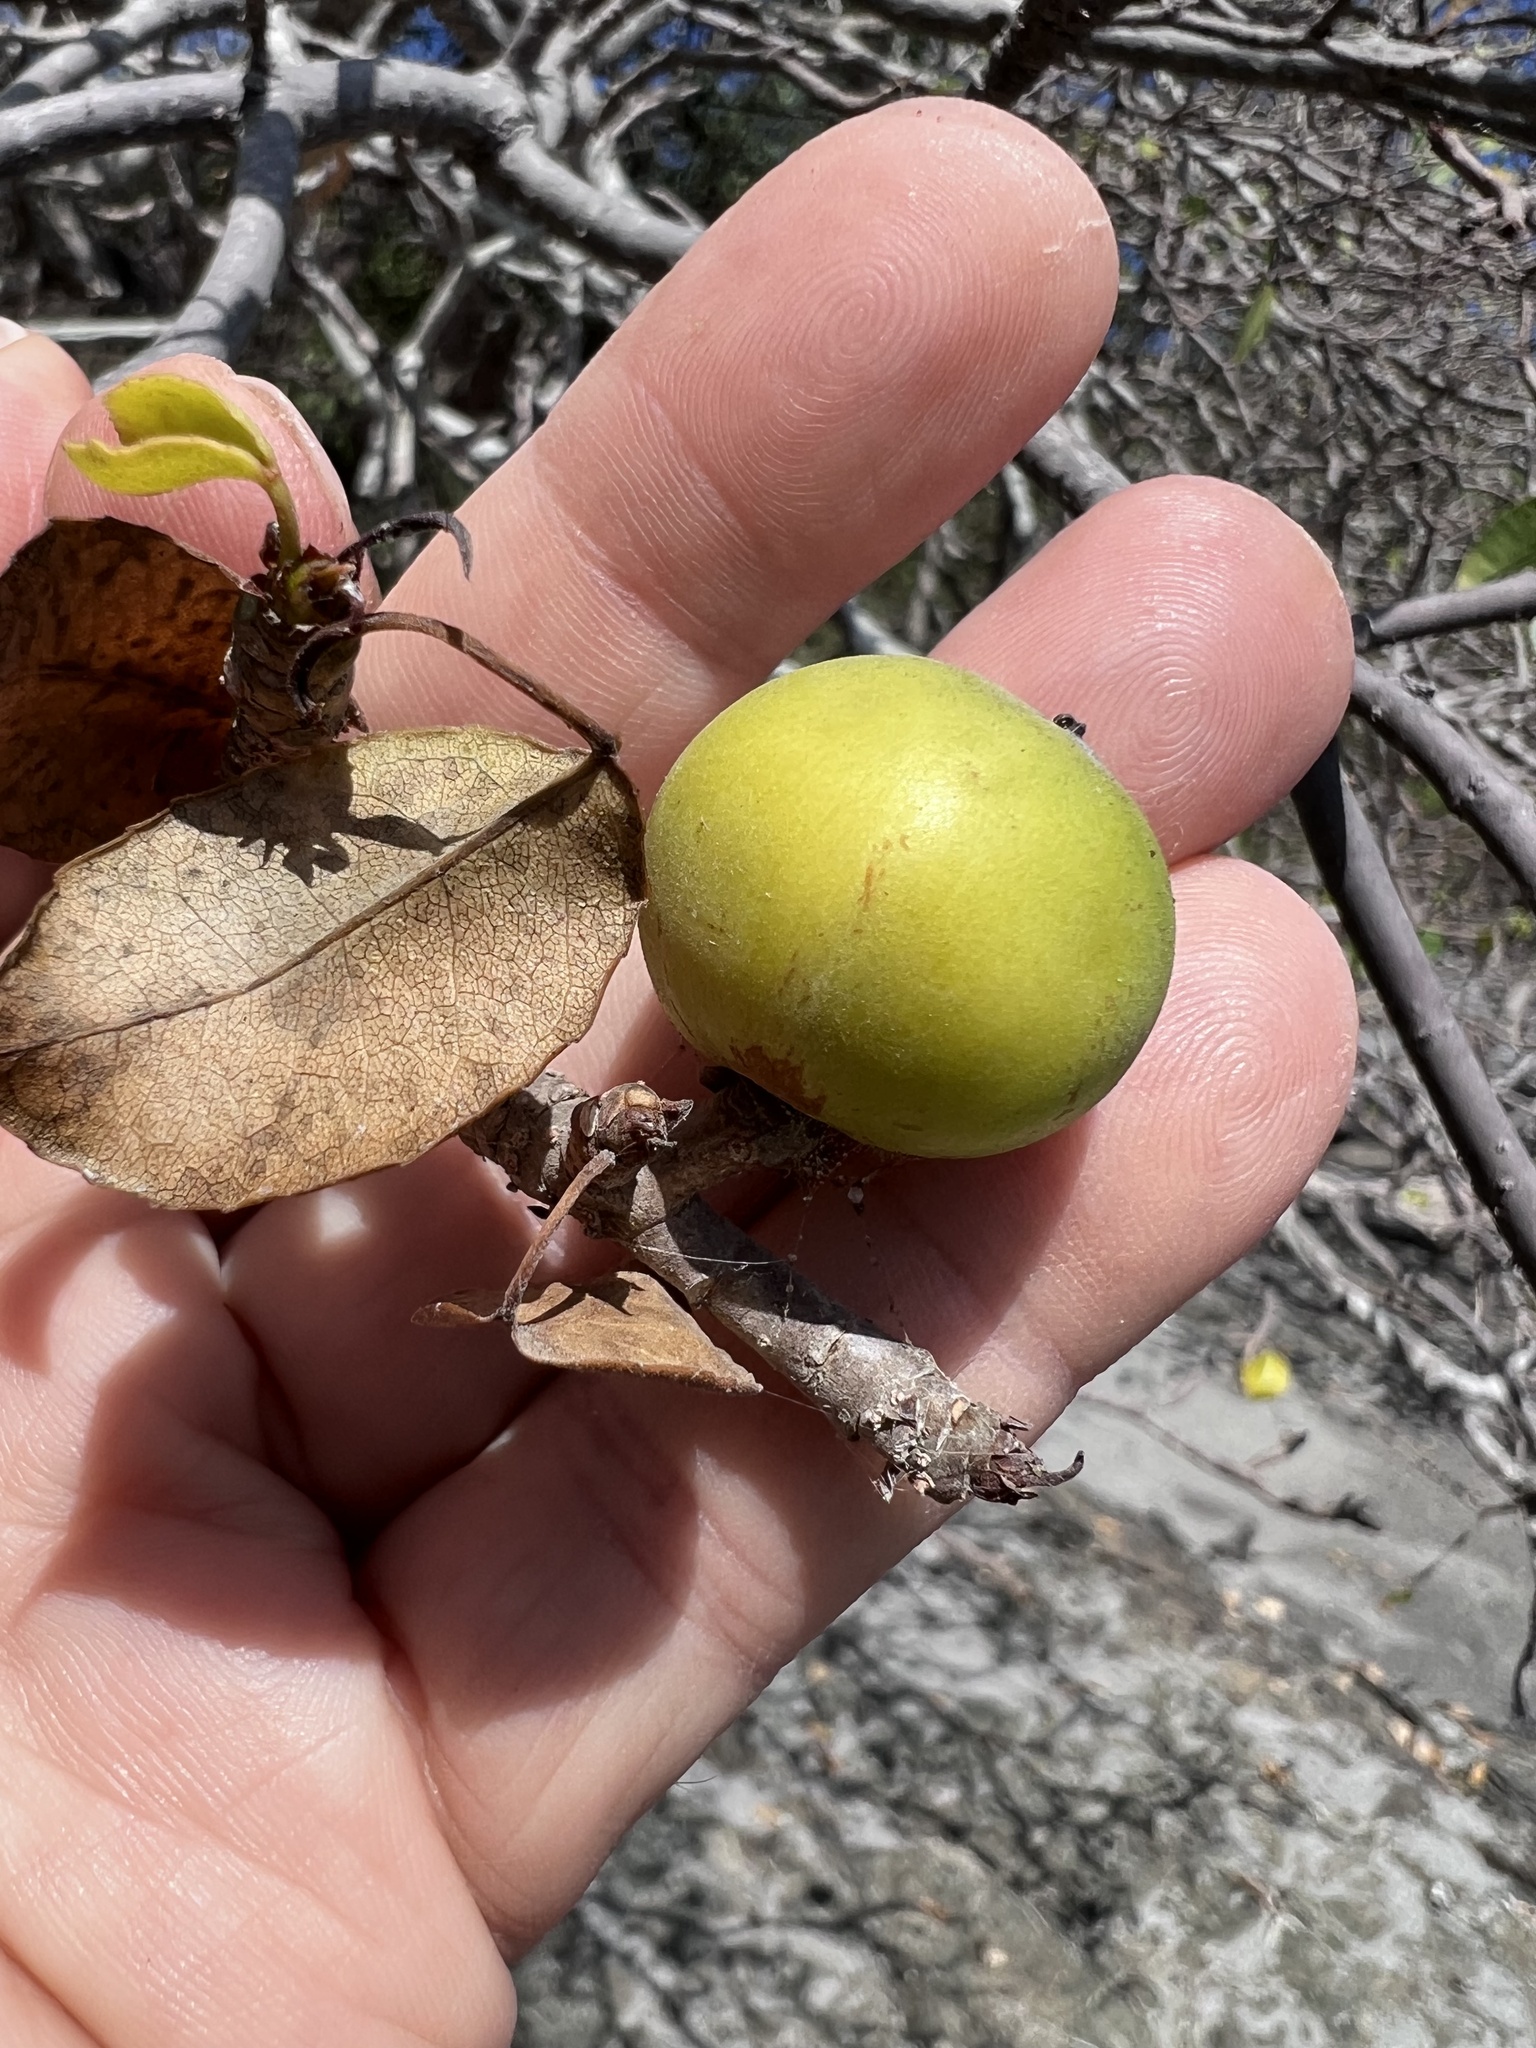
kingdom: Plantae
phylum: Tracheophyta
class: Magnoliopsida
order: Malpighiales
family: Euphorbiaceae
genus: Hippomane
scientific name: Hippomane mancinella
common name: Manchineel
